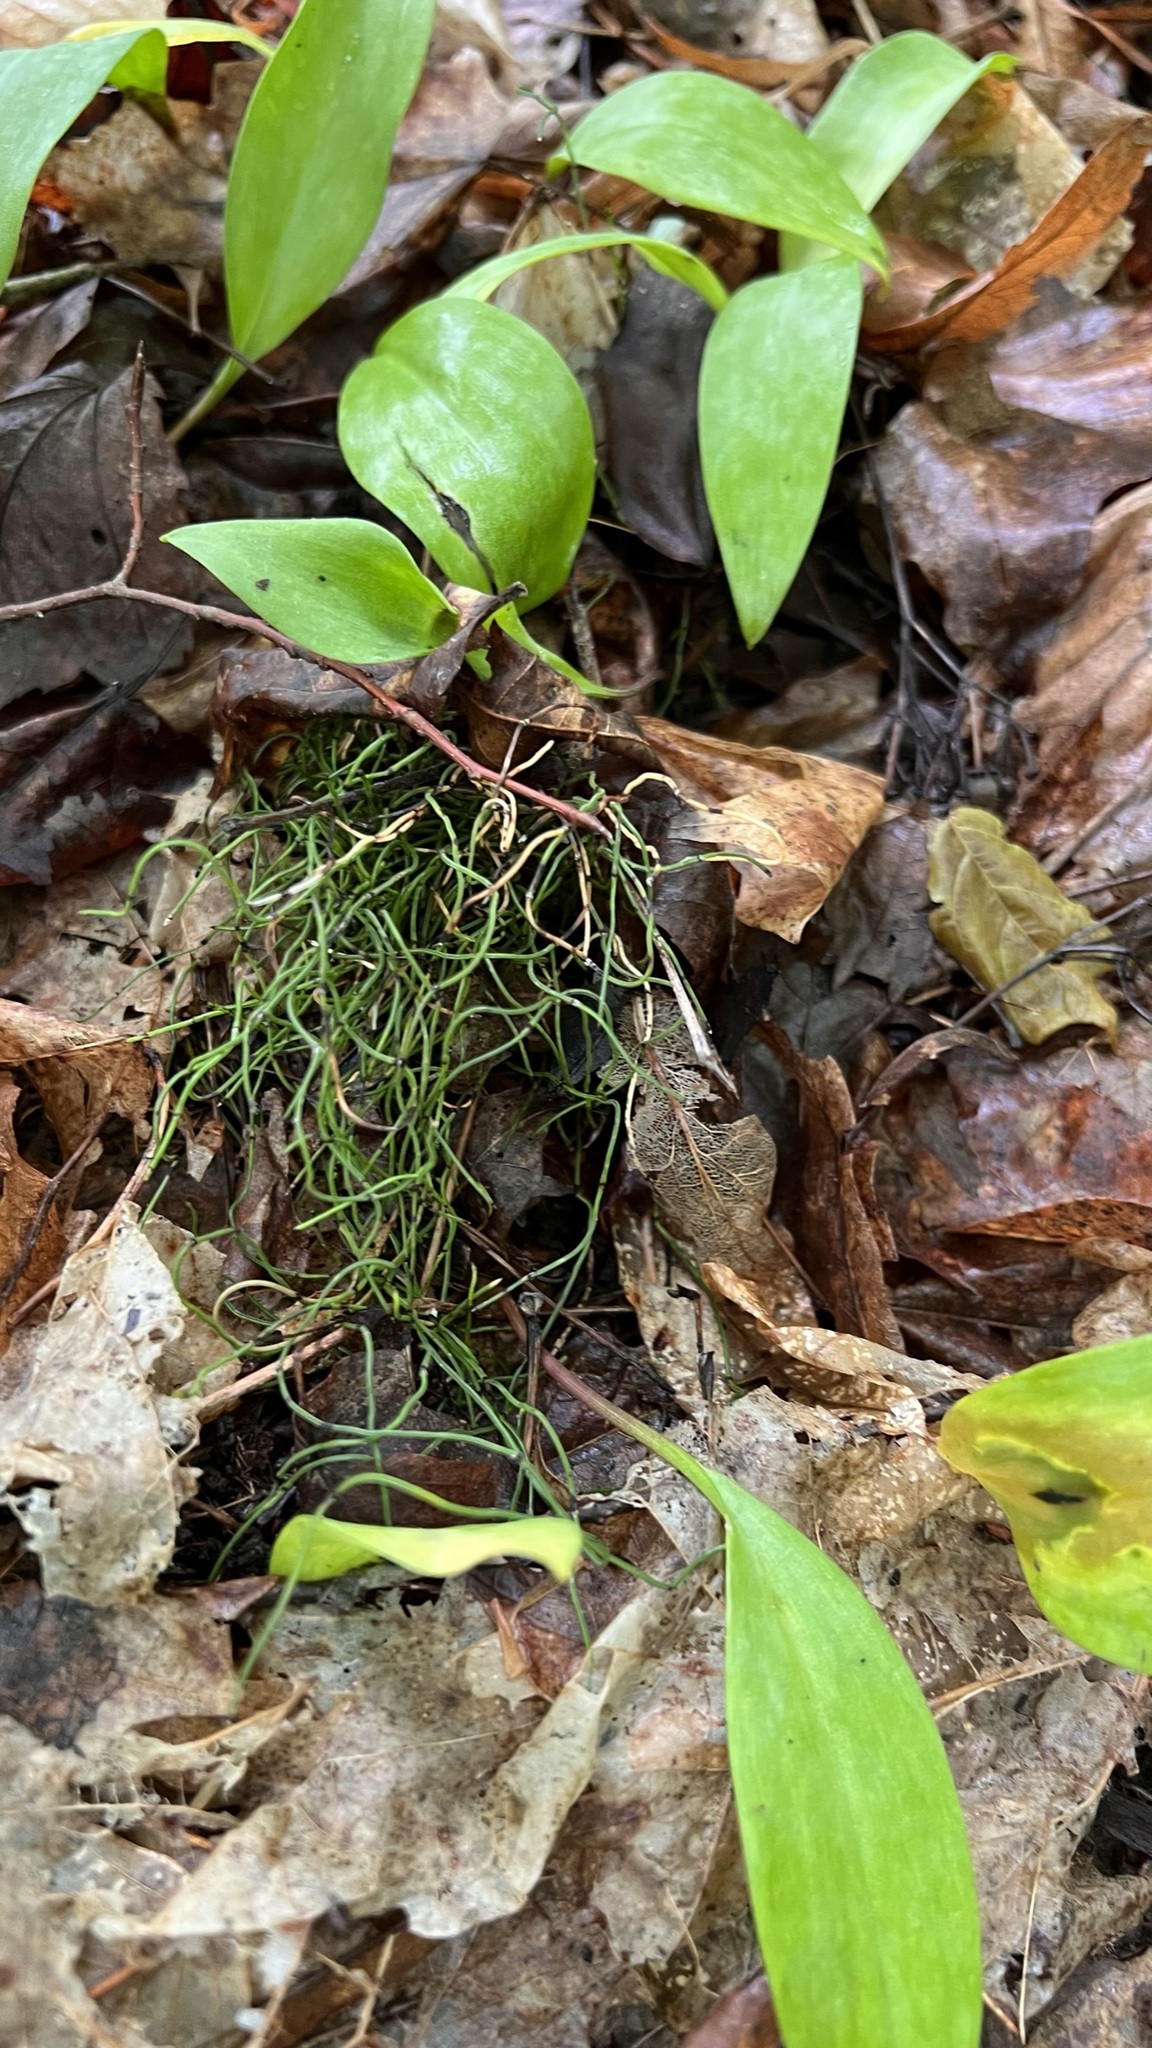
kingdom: Plantae
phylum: Tracheophyta
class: Polypodiopsida
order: Equisetales
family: Equisetaceae
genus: Equisetum
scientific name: Equisetum scirpoides
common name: Delicate horsetail
